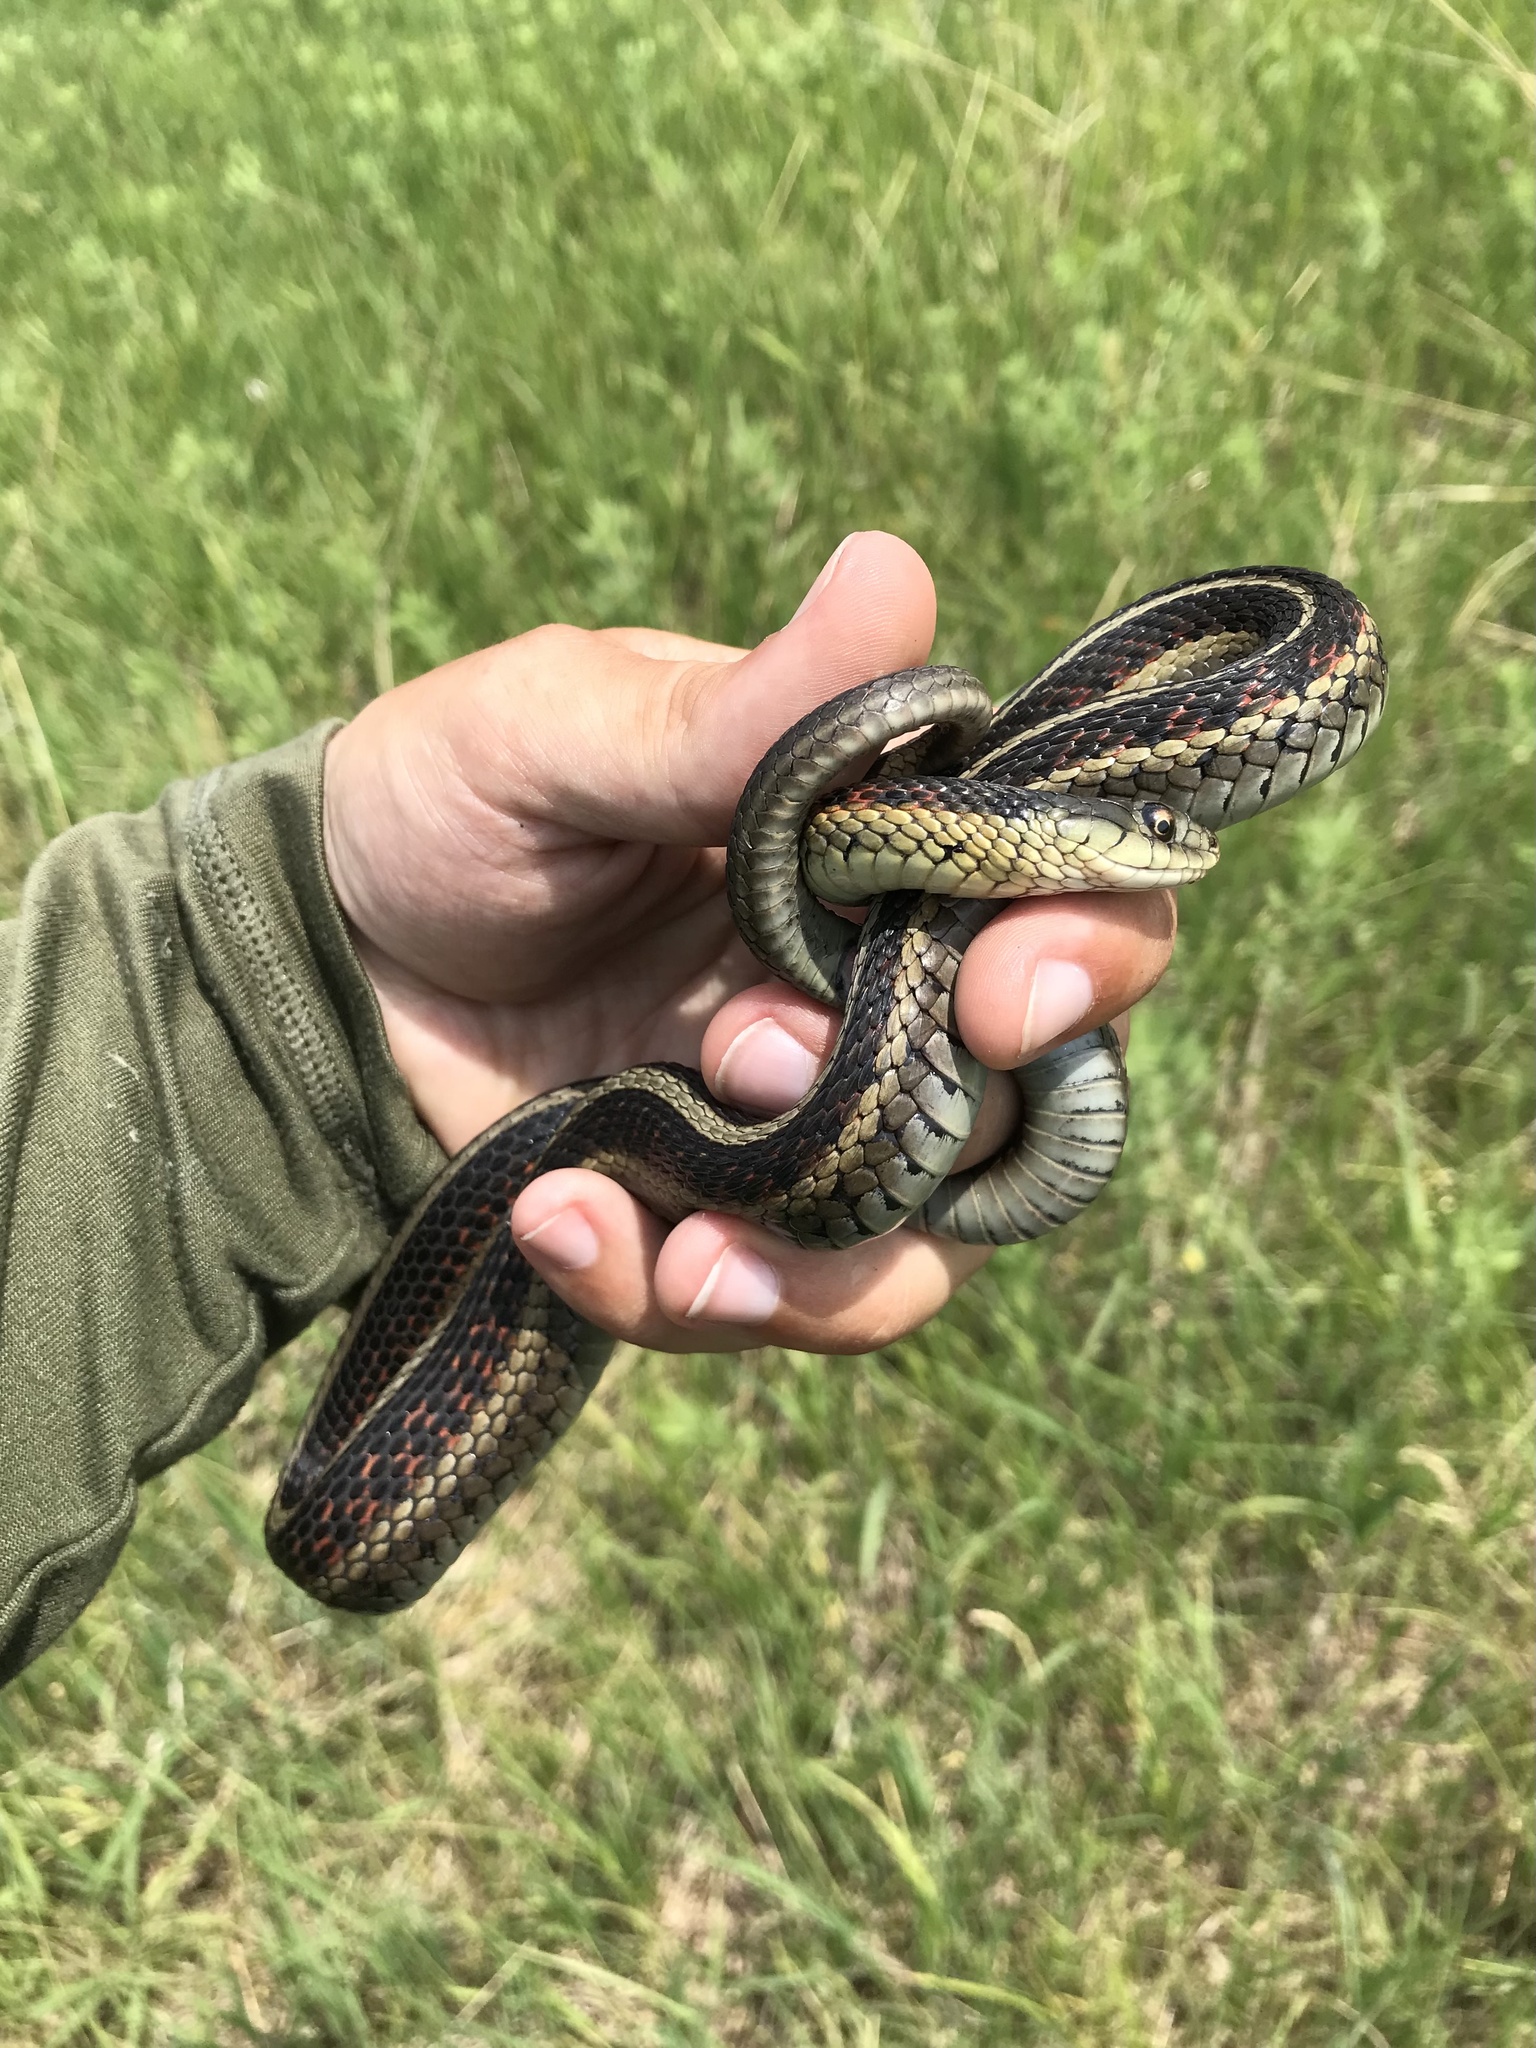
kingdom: Animalia
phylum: Chordata
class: Squamata
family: Colubridae
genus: Thamnophis
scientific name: Thamnophis sirtalis
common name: Common garter snake
